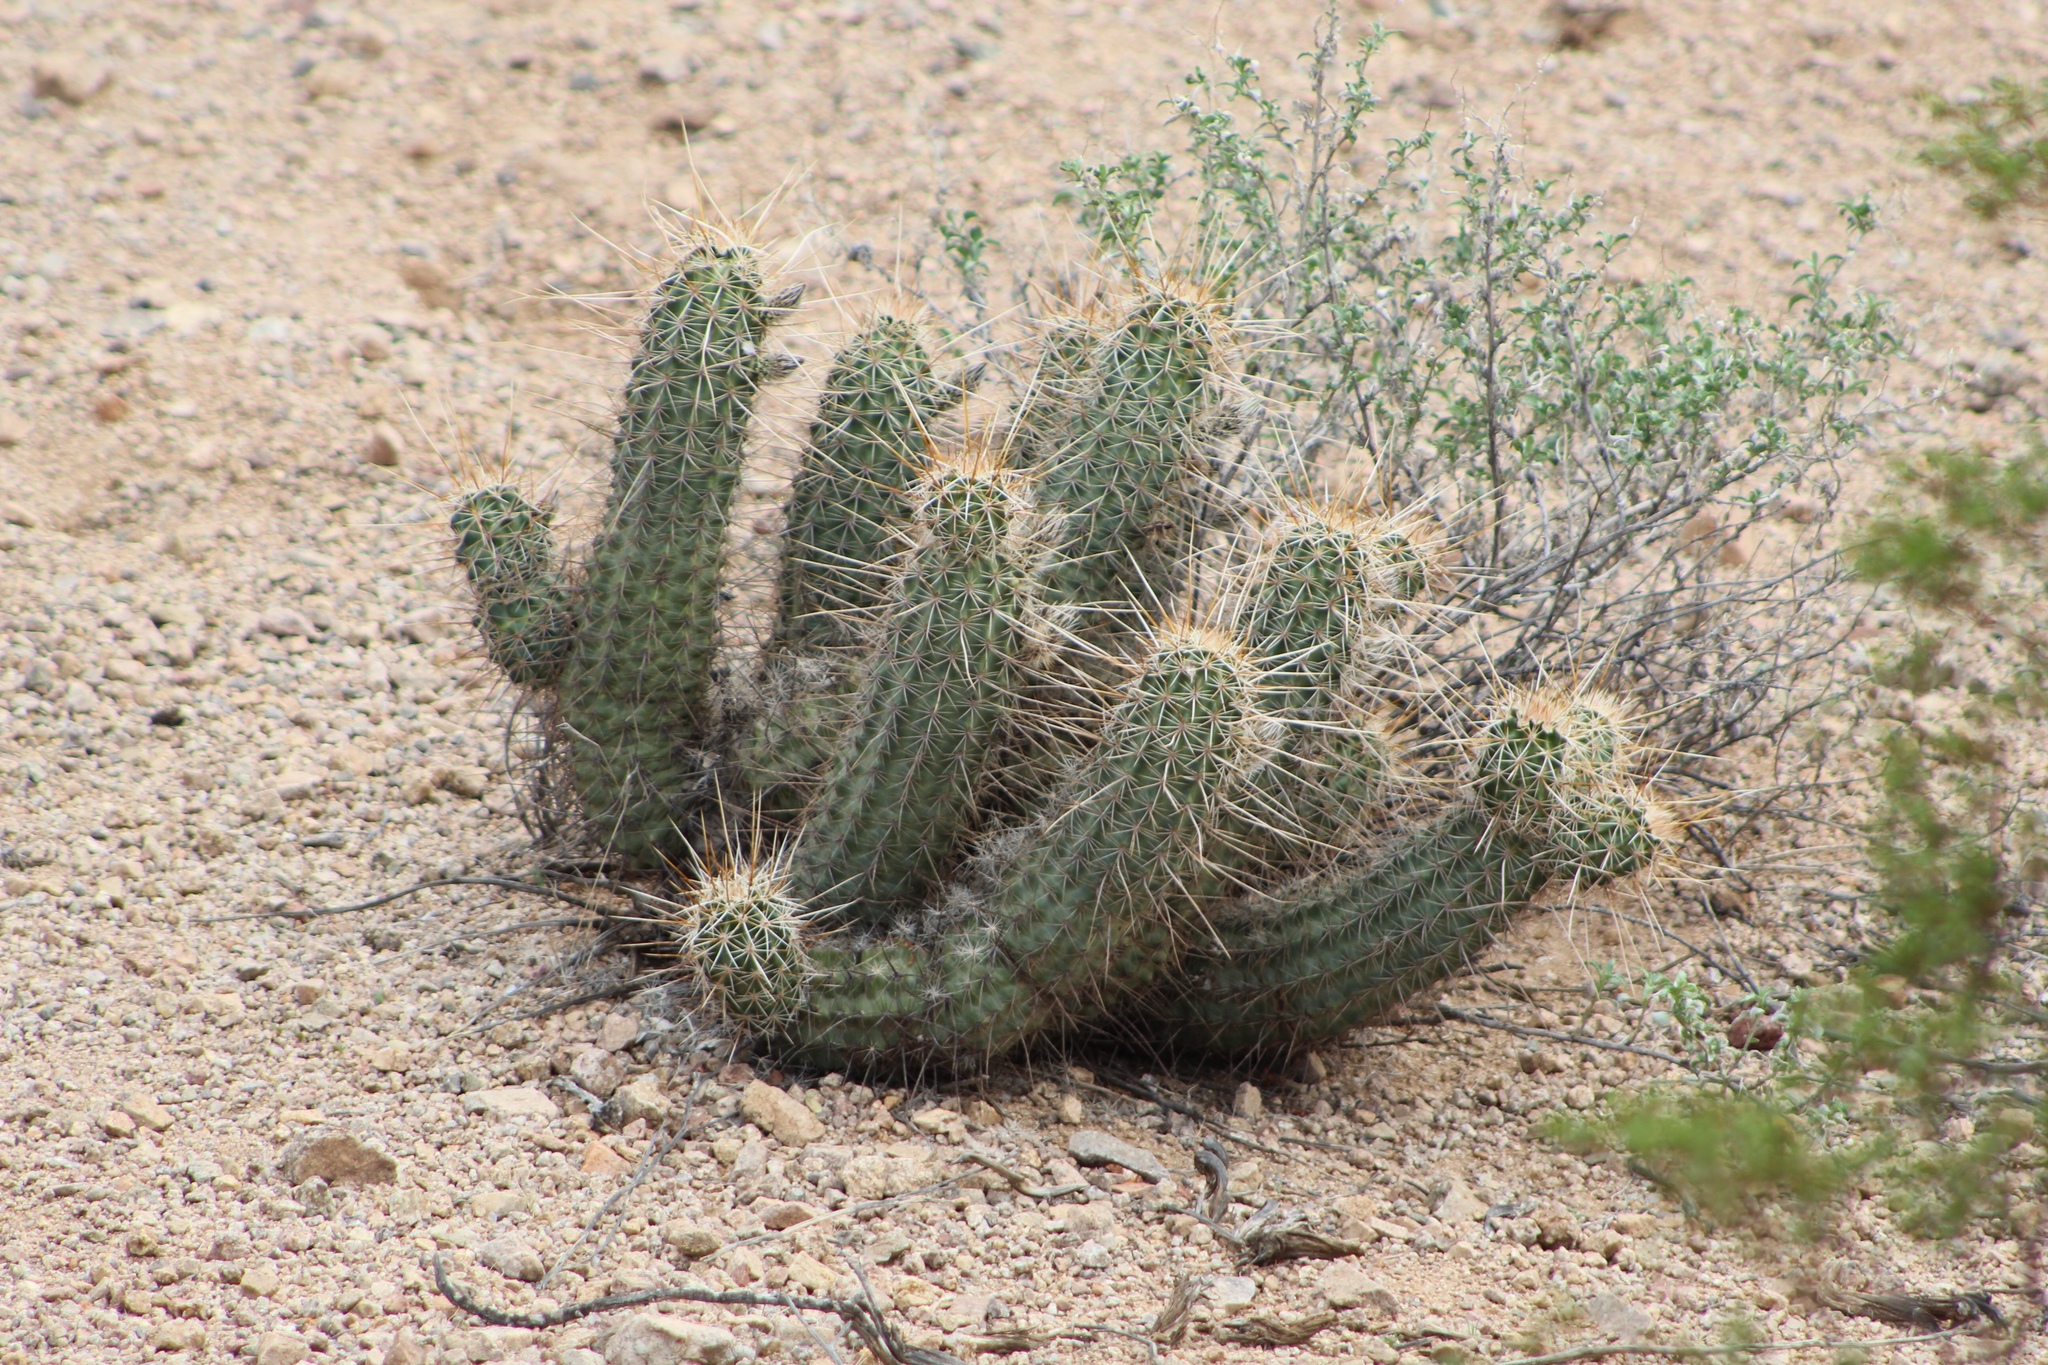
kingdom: Plantae
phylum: Tracheophyta
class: Magnoliopsida
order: Caryophyllales
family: Cactaceae
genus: Echinocereus
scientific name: Echinocereus fasciculatus
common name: Bundle hedgehog
